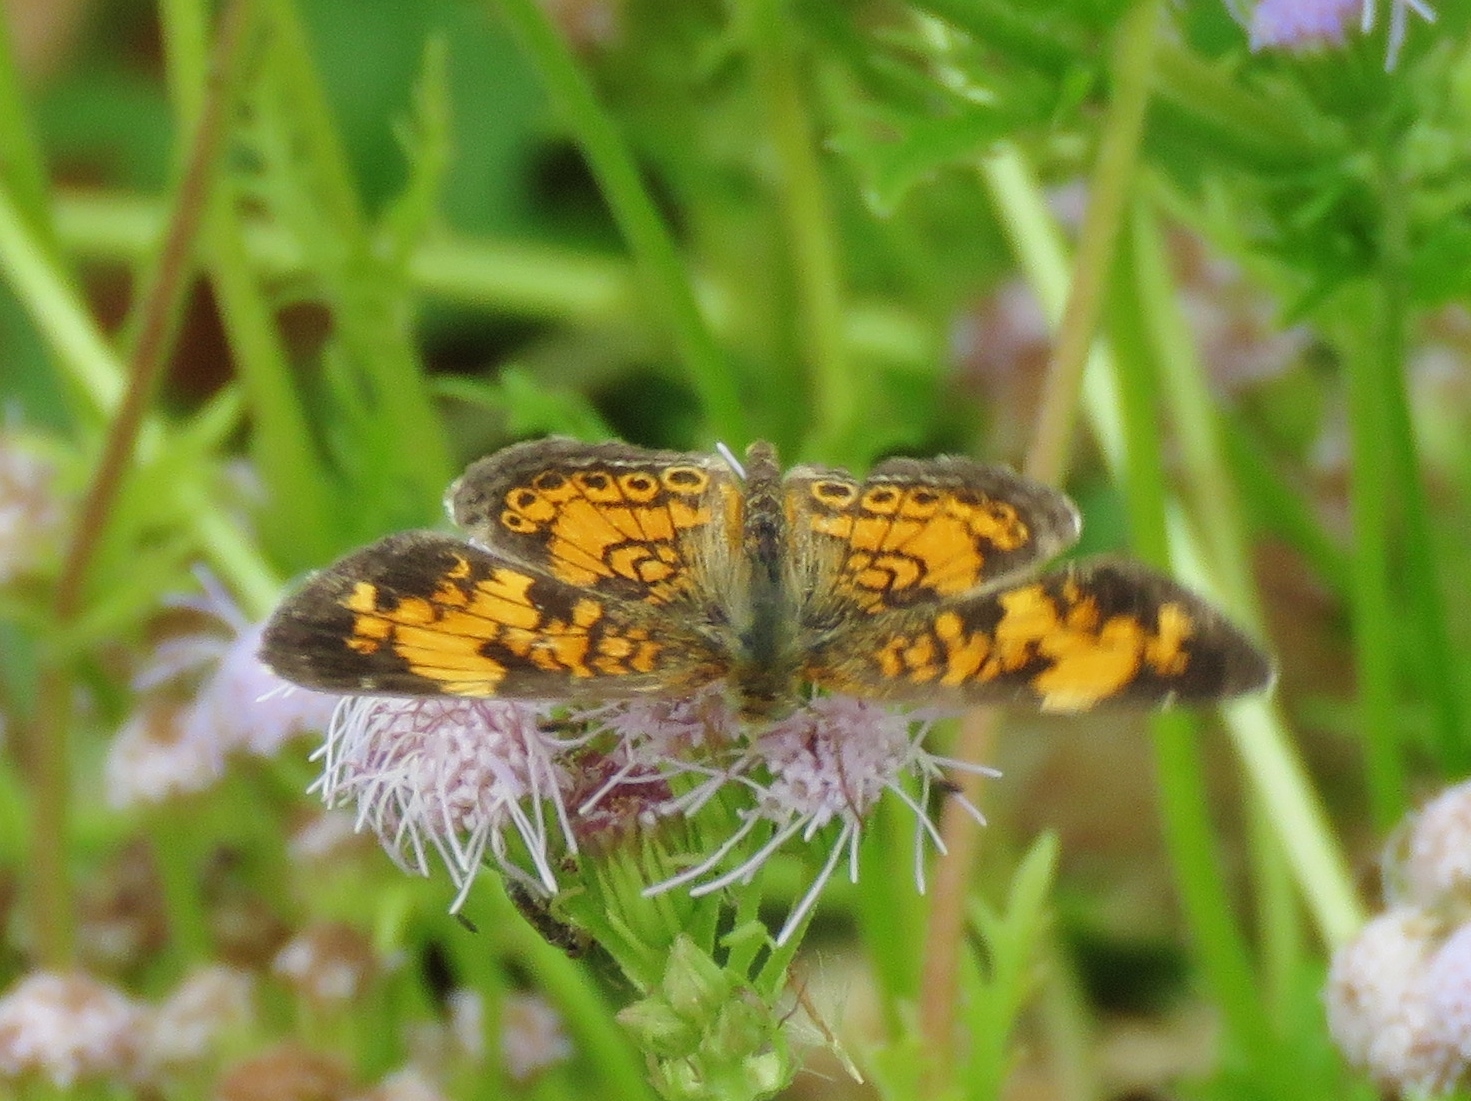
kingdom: Animalia
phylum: Arthropoda
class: Insecta
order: Lepidoptera
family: Nymphalidae
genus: Phyciodes
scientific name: Phyciodes tharos
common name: Pearl crescent
